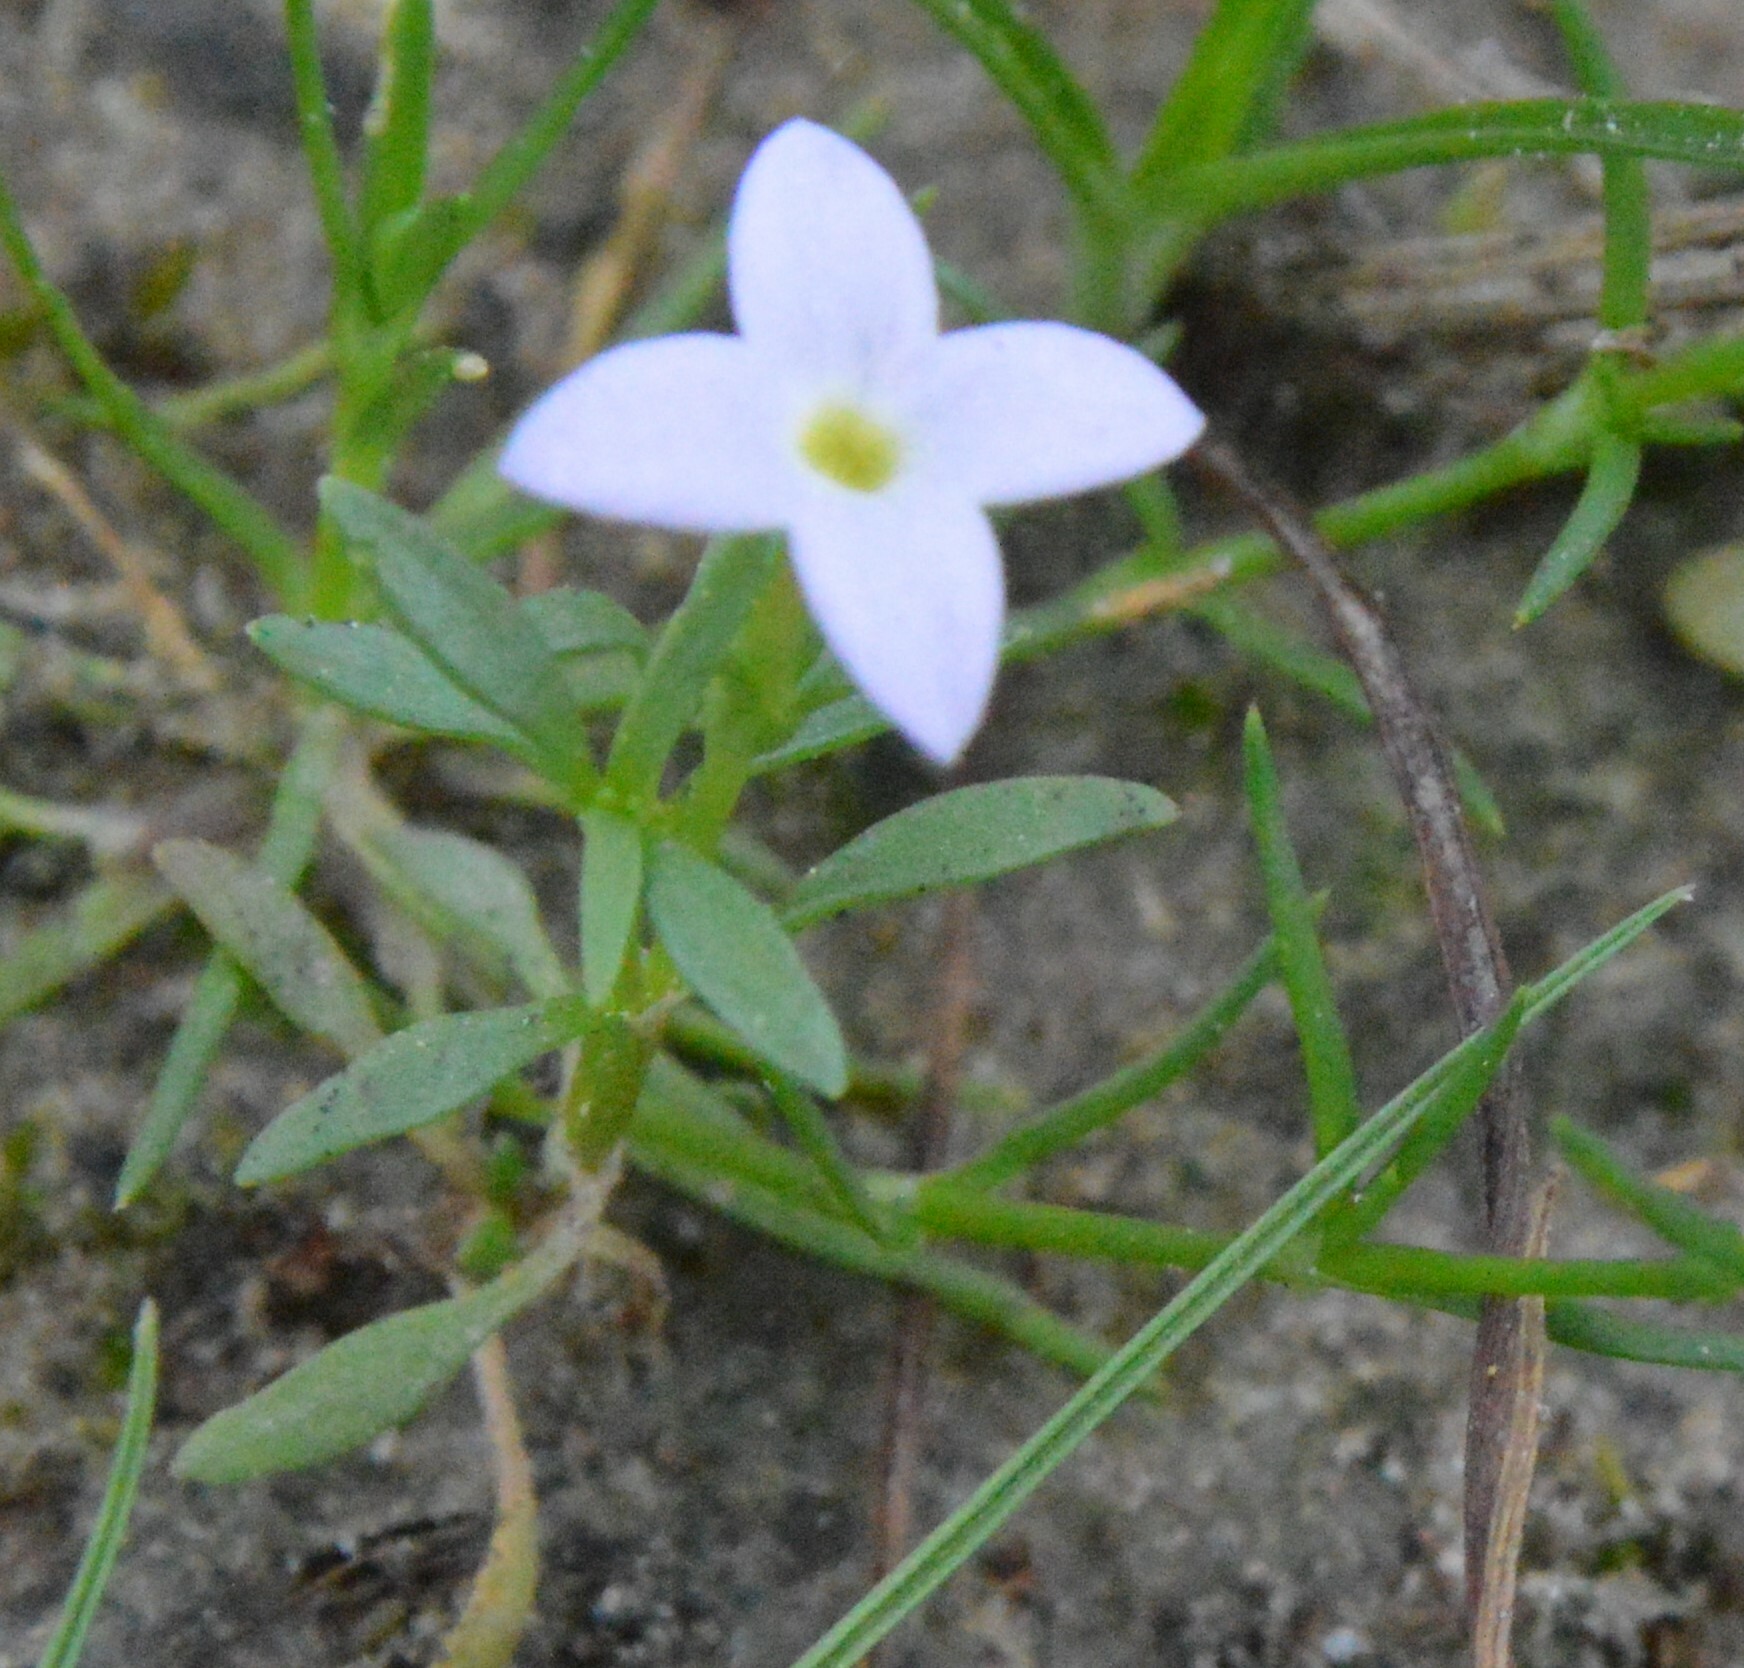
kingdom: Plantae
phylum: Tracheophyta
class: Magnoliopsida
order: Gentianales
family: Rubiaceae
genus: Houstonia
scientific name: Houstonia rosea
